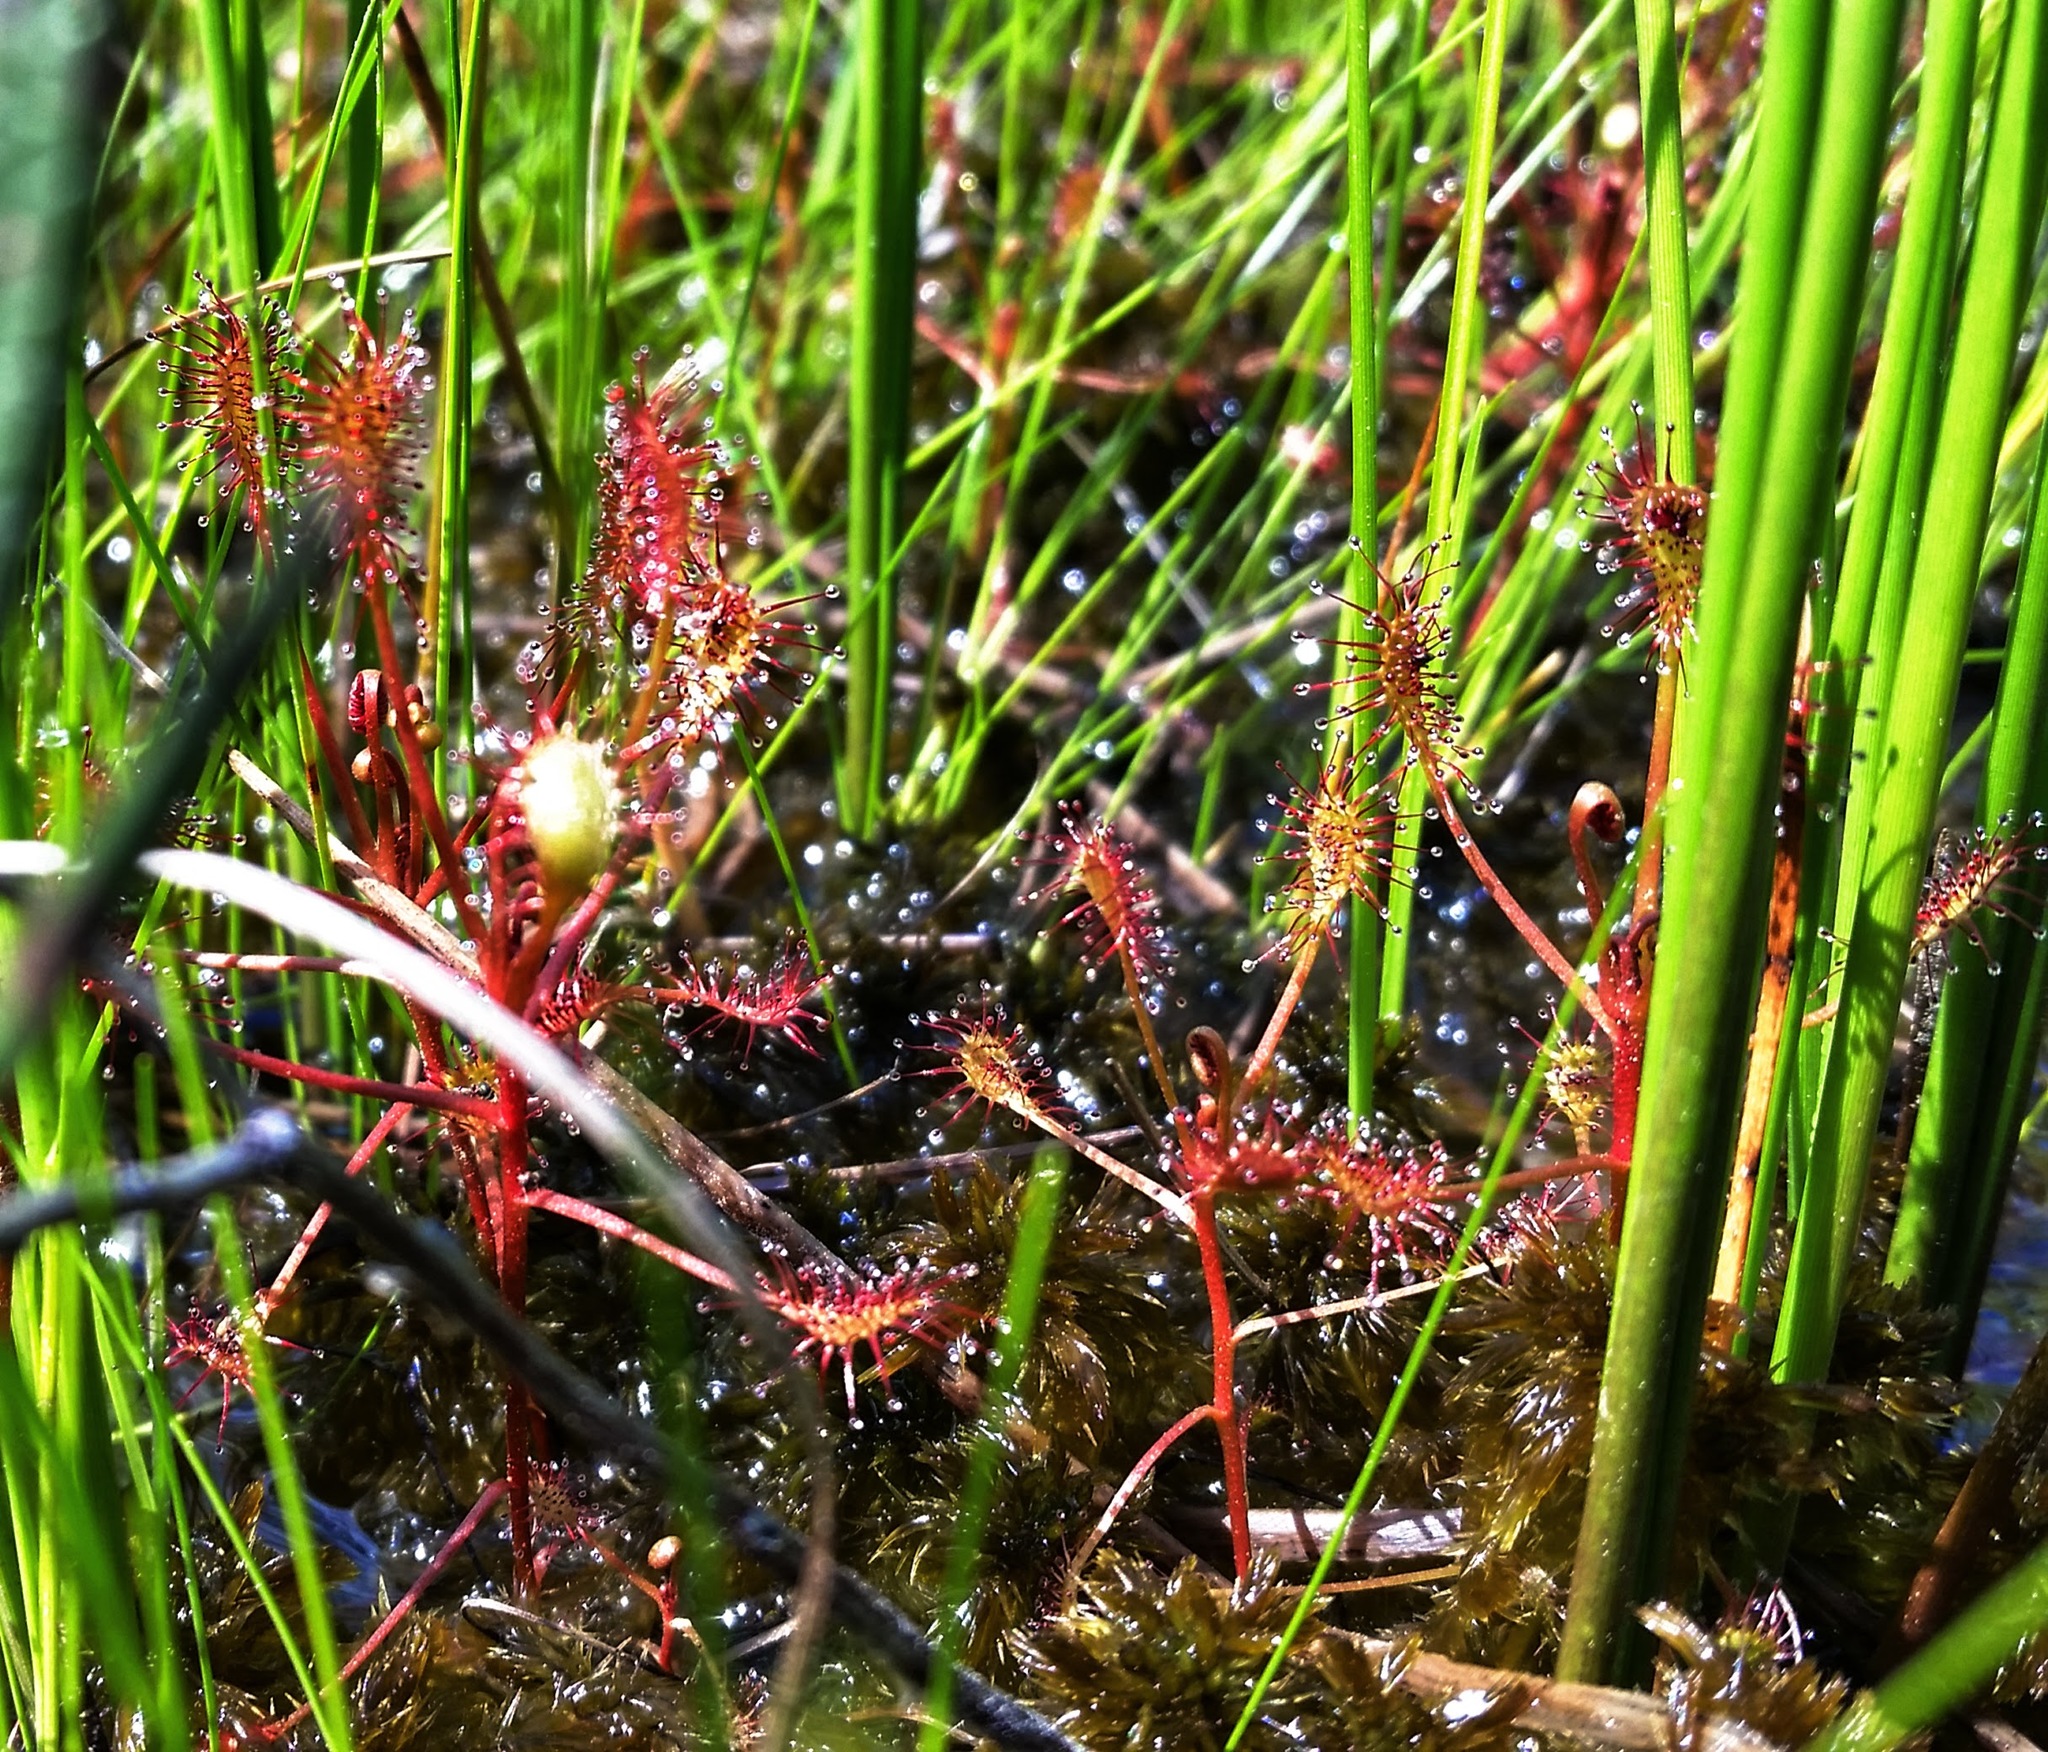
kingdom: Plantae
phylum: Tracheophyta
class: Magnoliopsida
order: Caryophyllales
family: Droseraceae
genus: Drosera
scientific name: Drosera intermedia
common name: Oblong-leaved sundew
